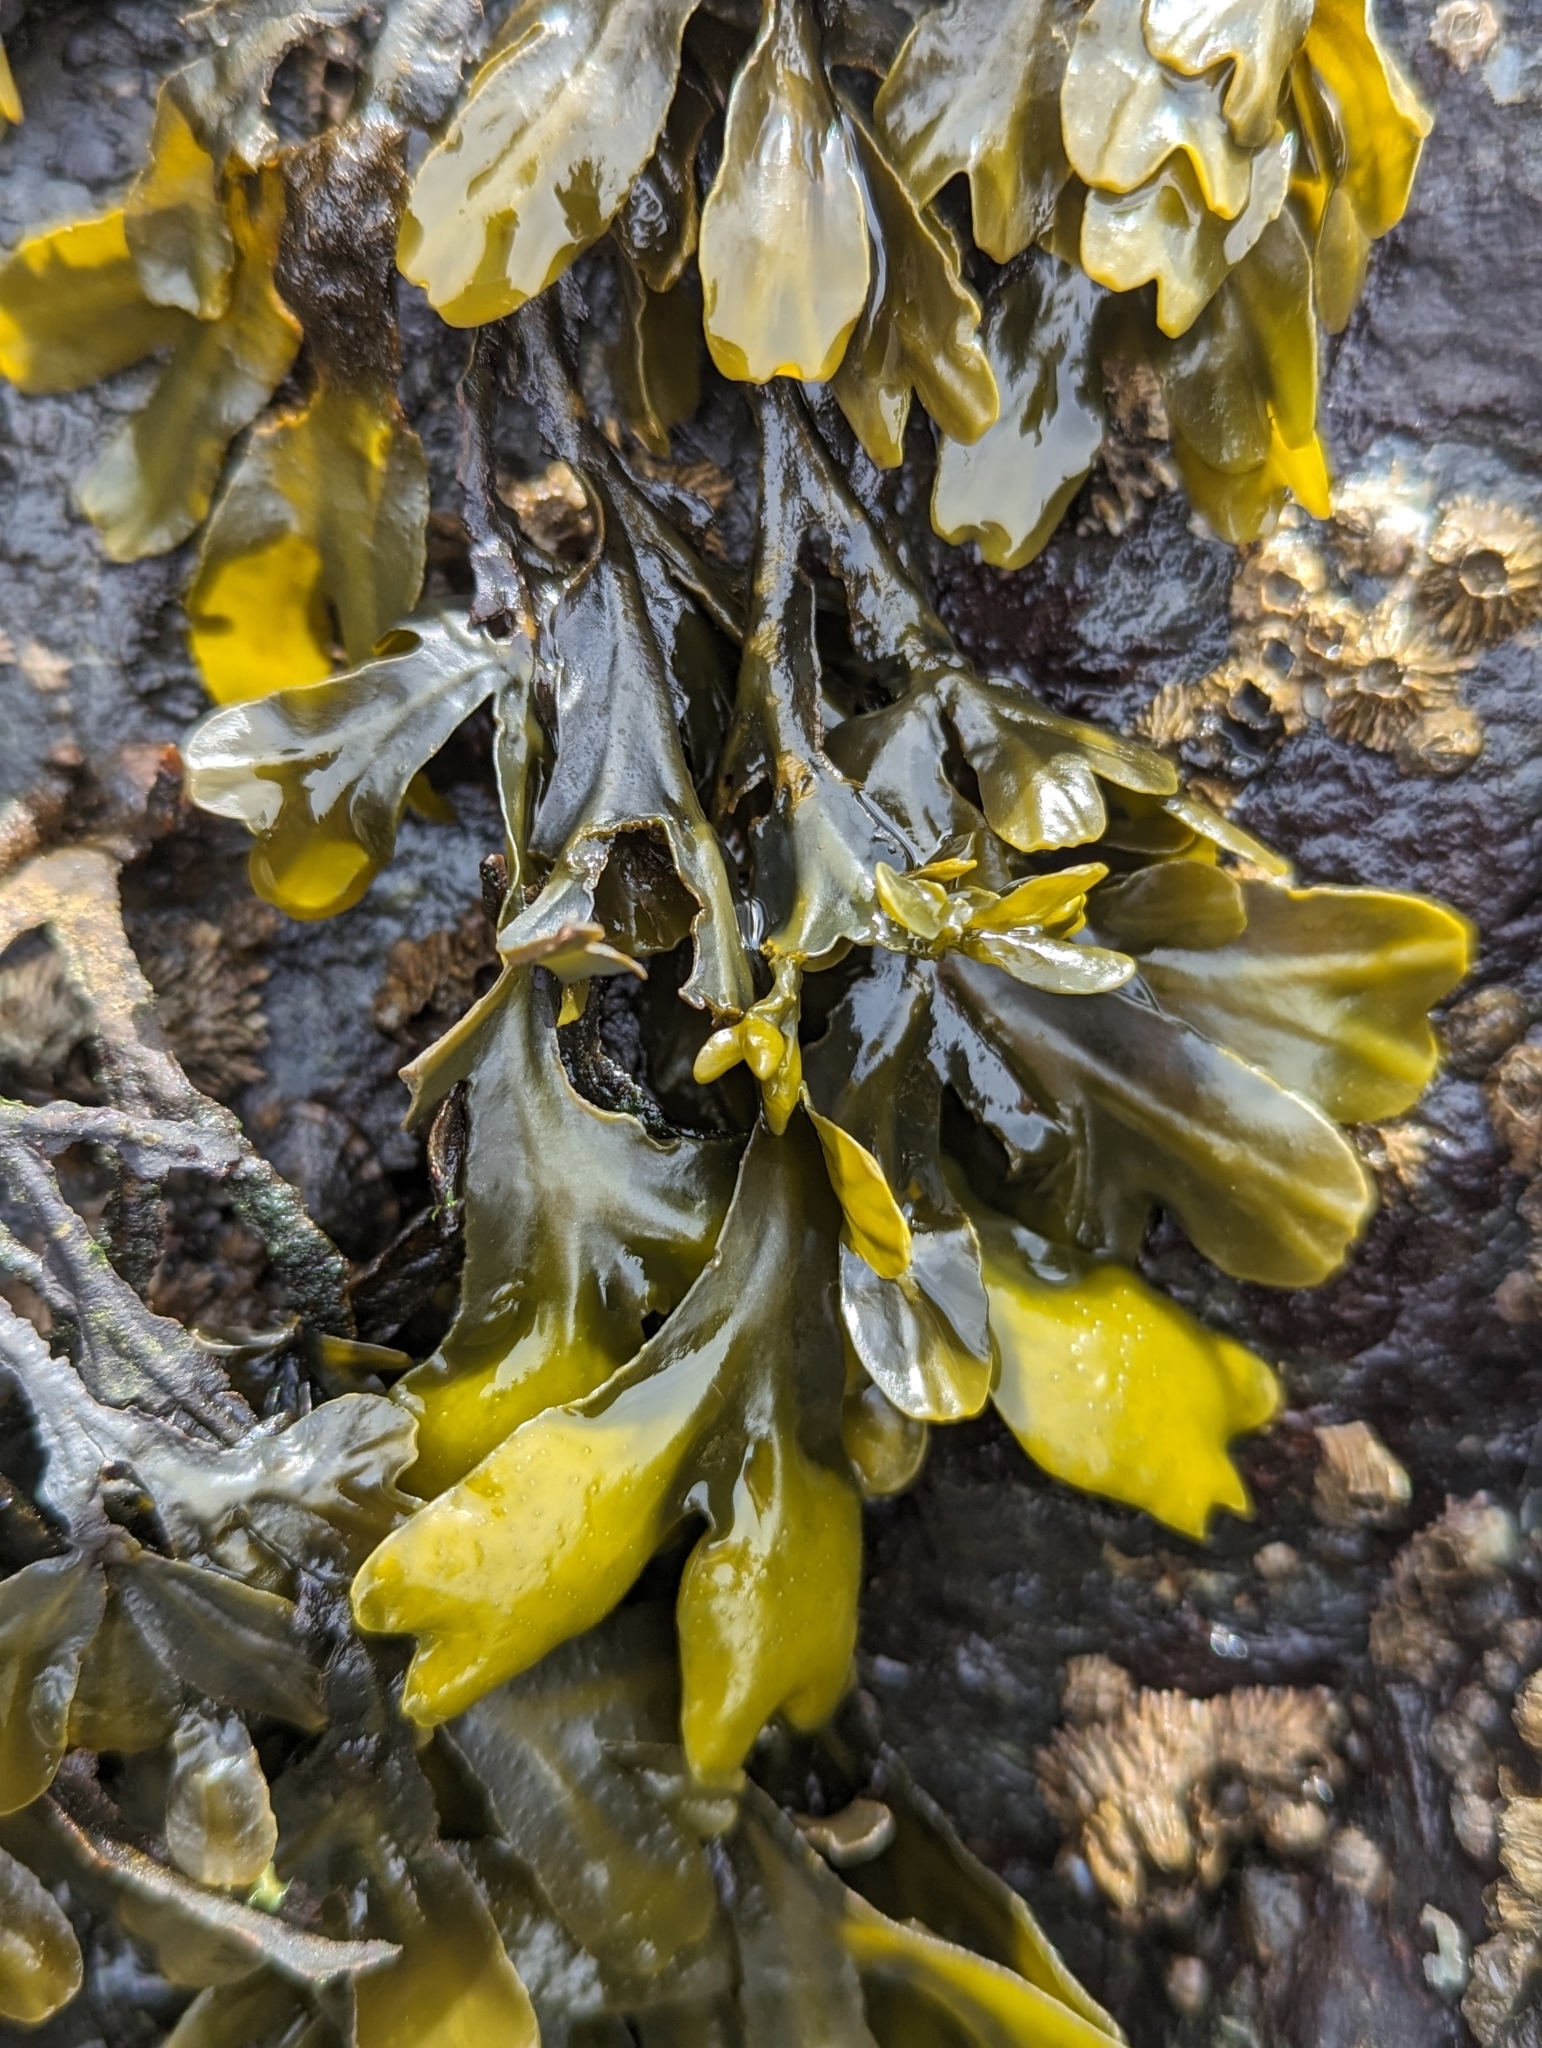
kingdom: Chromista
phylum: Ochrophyta
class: Phaeophyceae
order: Fucales
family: Fucaceae
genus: Fucus
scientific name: Fucus distichus
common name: Rockweed
